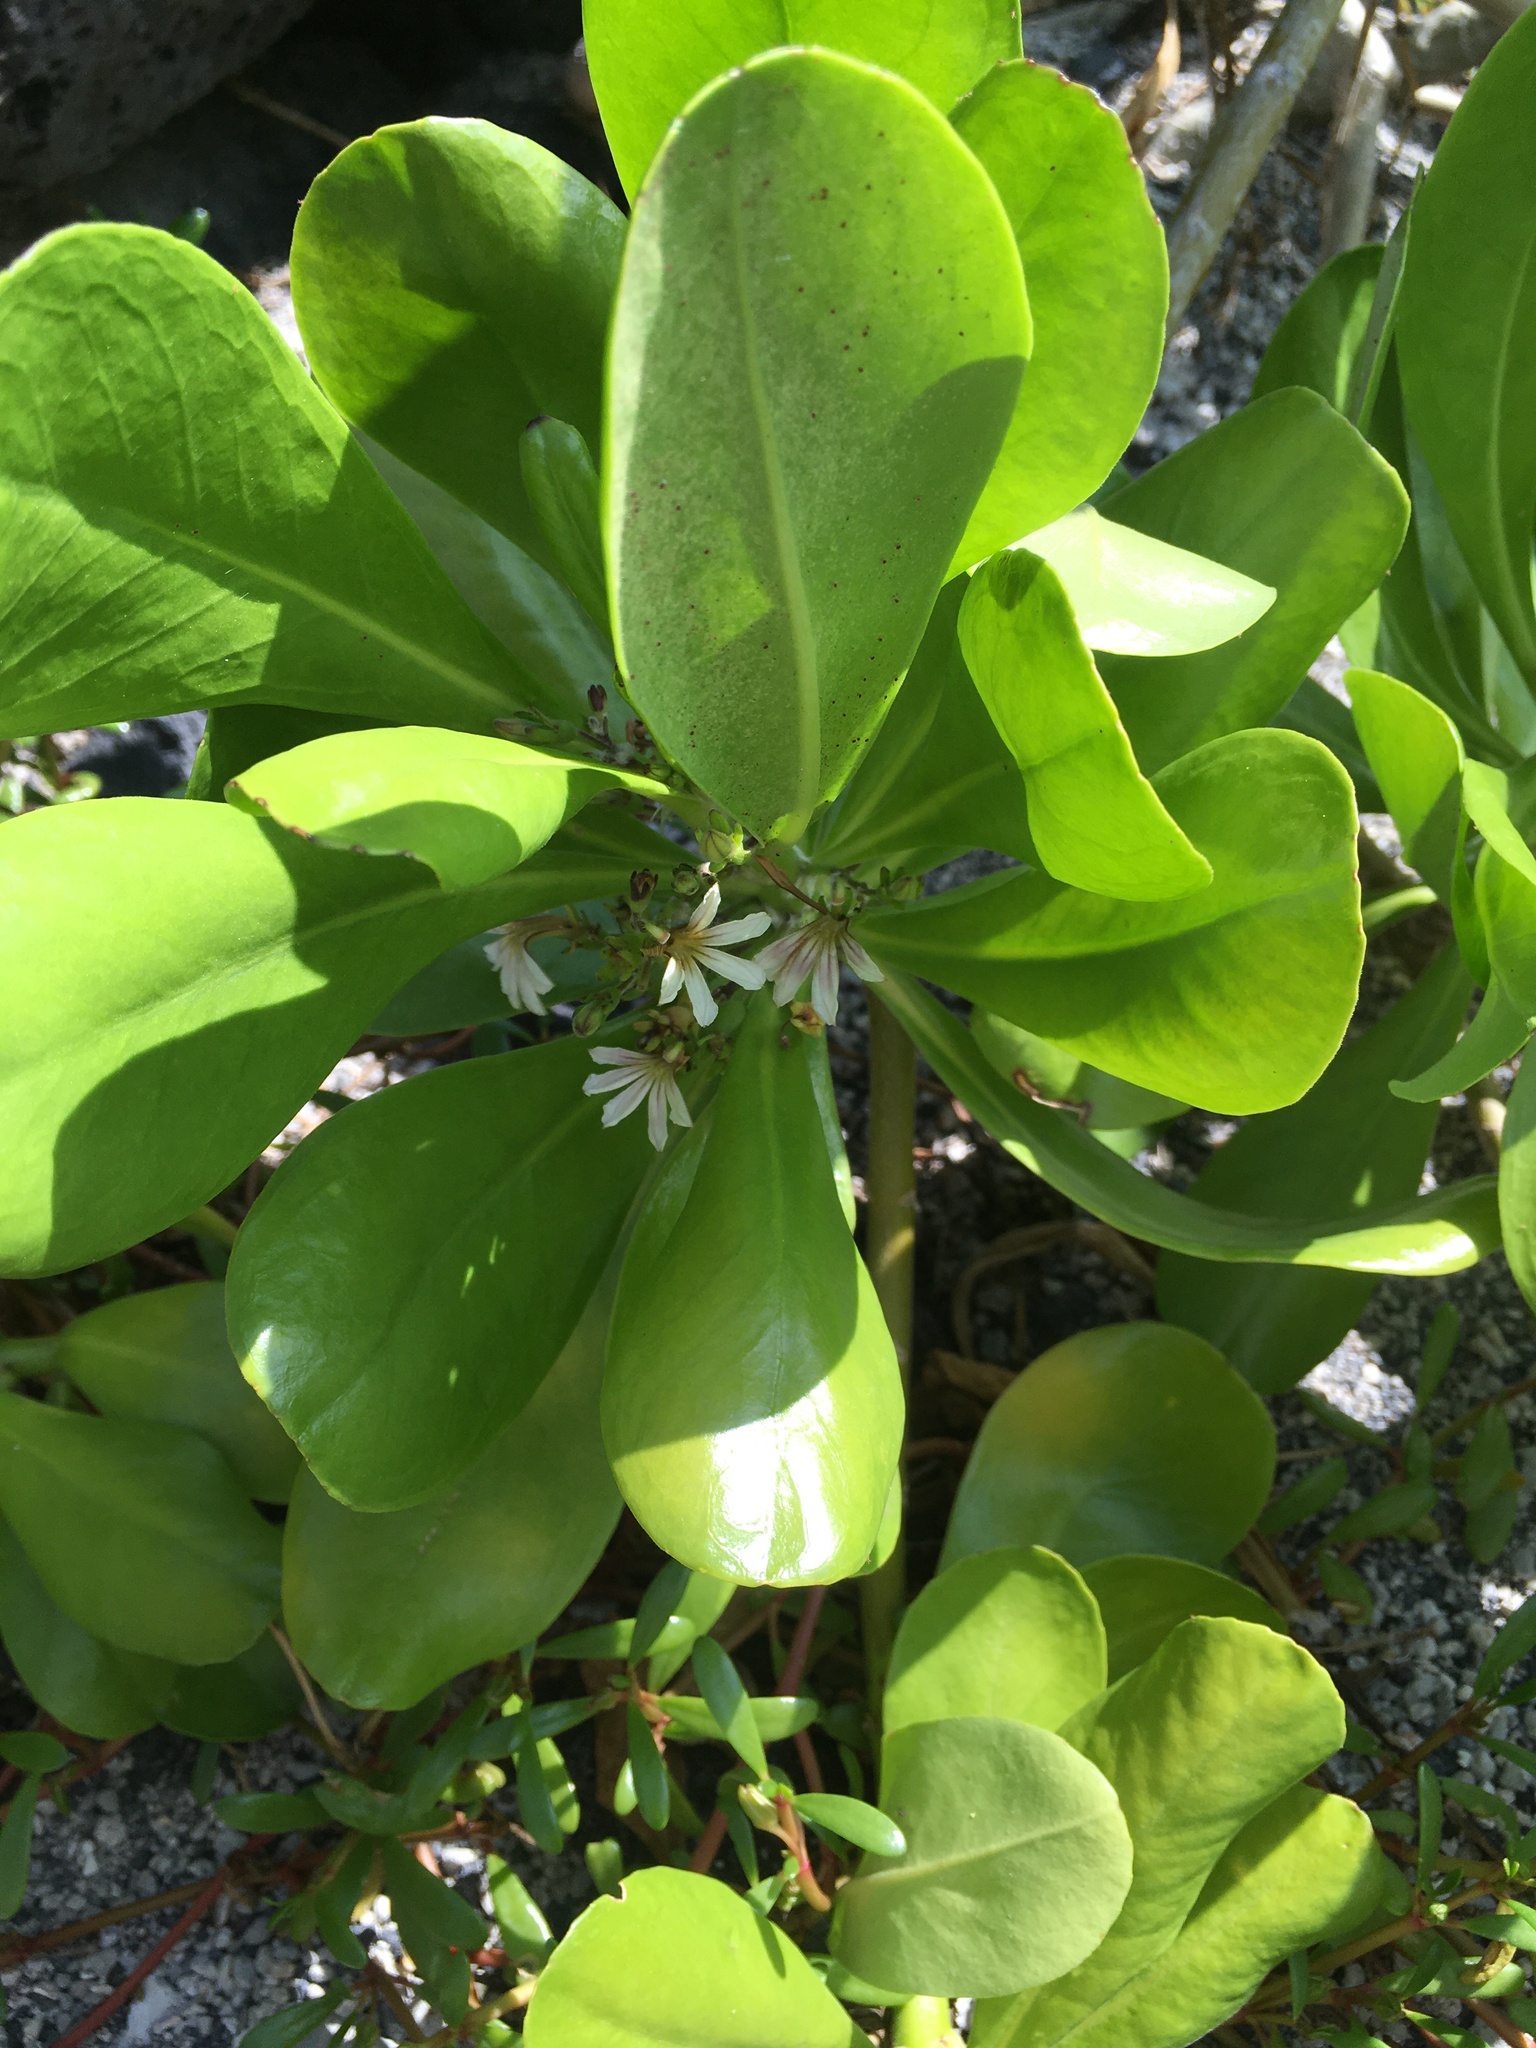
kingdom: Plantae
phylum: Tracheophyta
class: Magnoliopsida
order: Asterales
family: Goodeniaceae
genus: Scaevola
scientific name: Scaevola taccada
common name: Sea lettucetree
